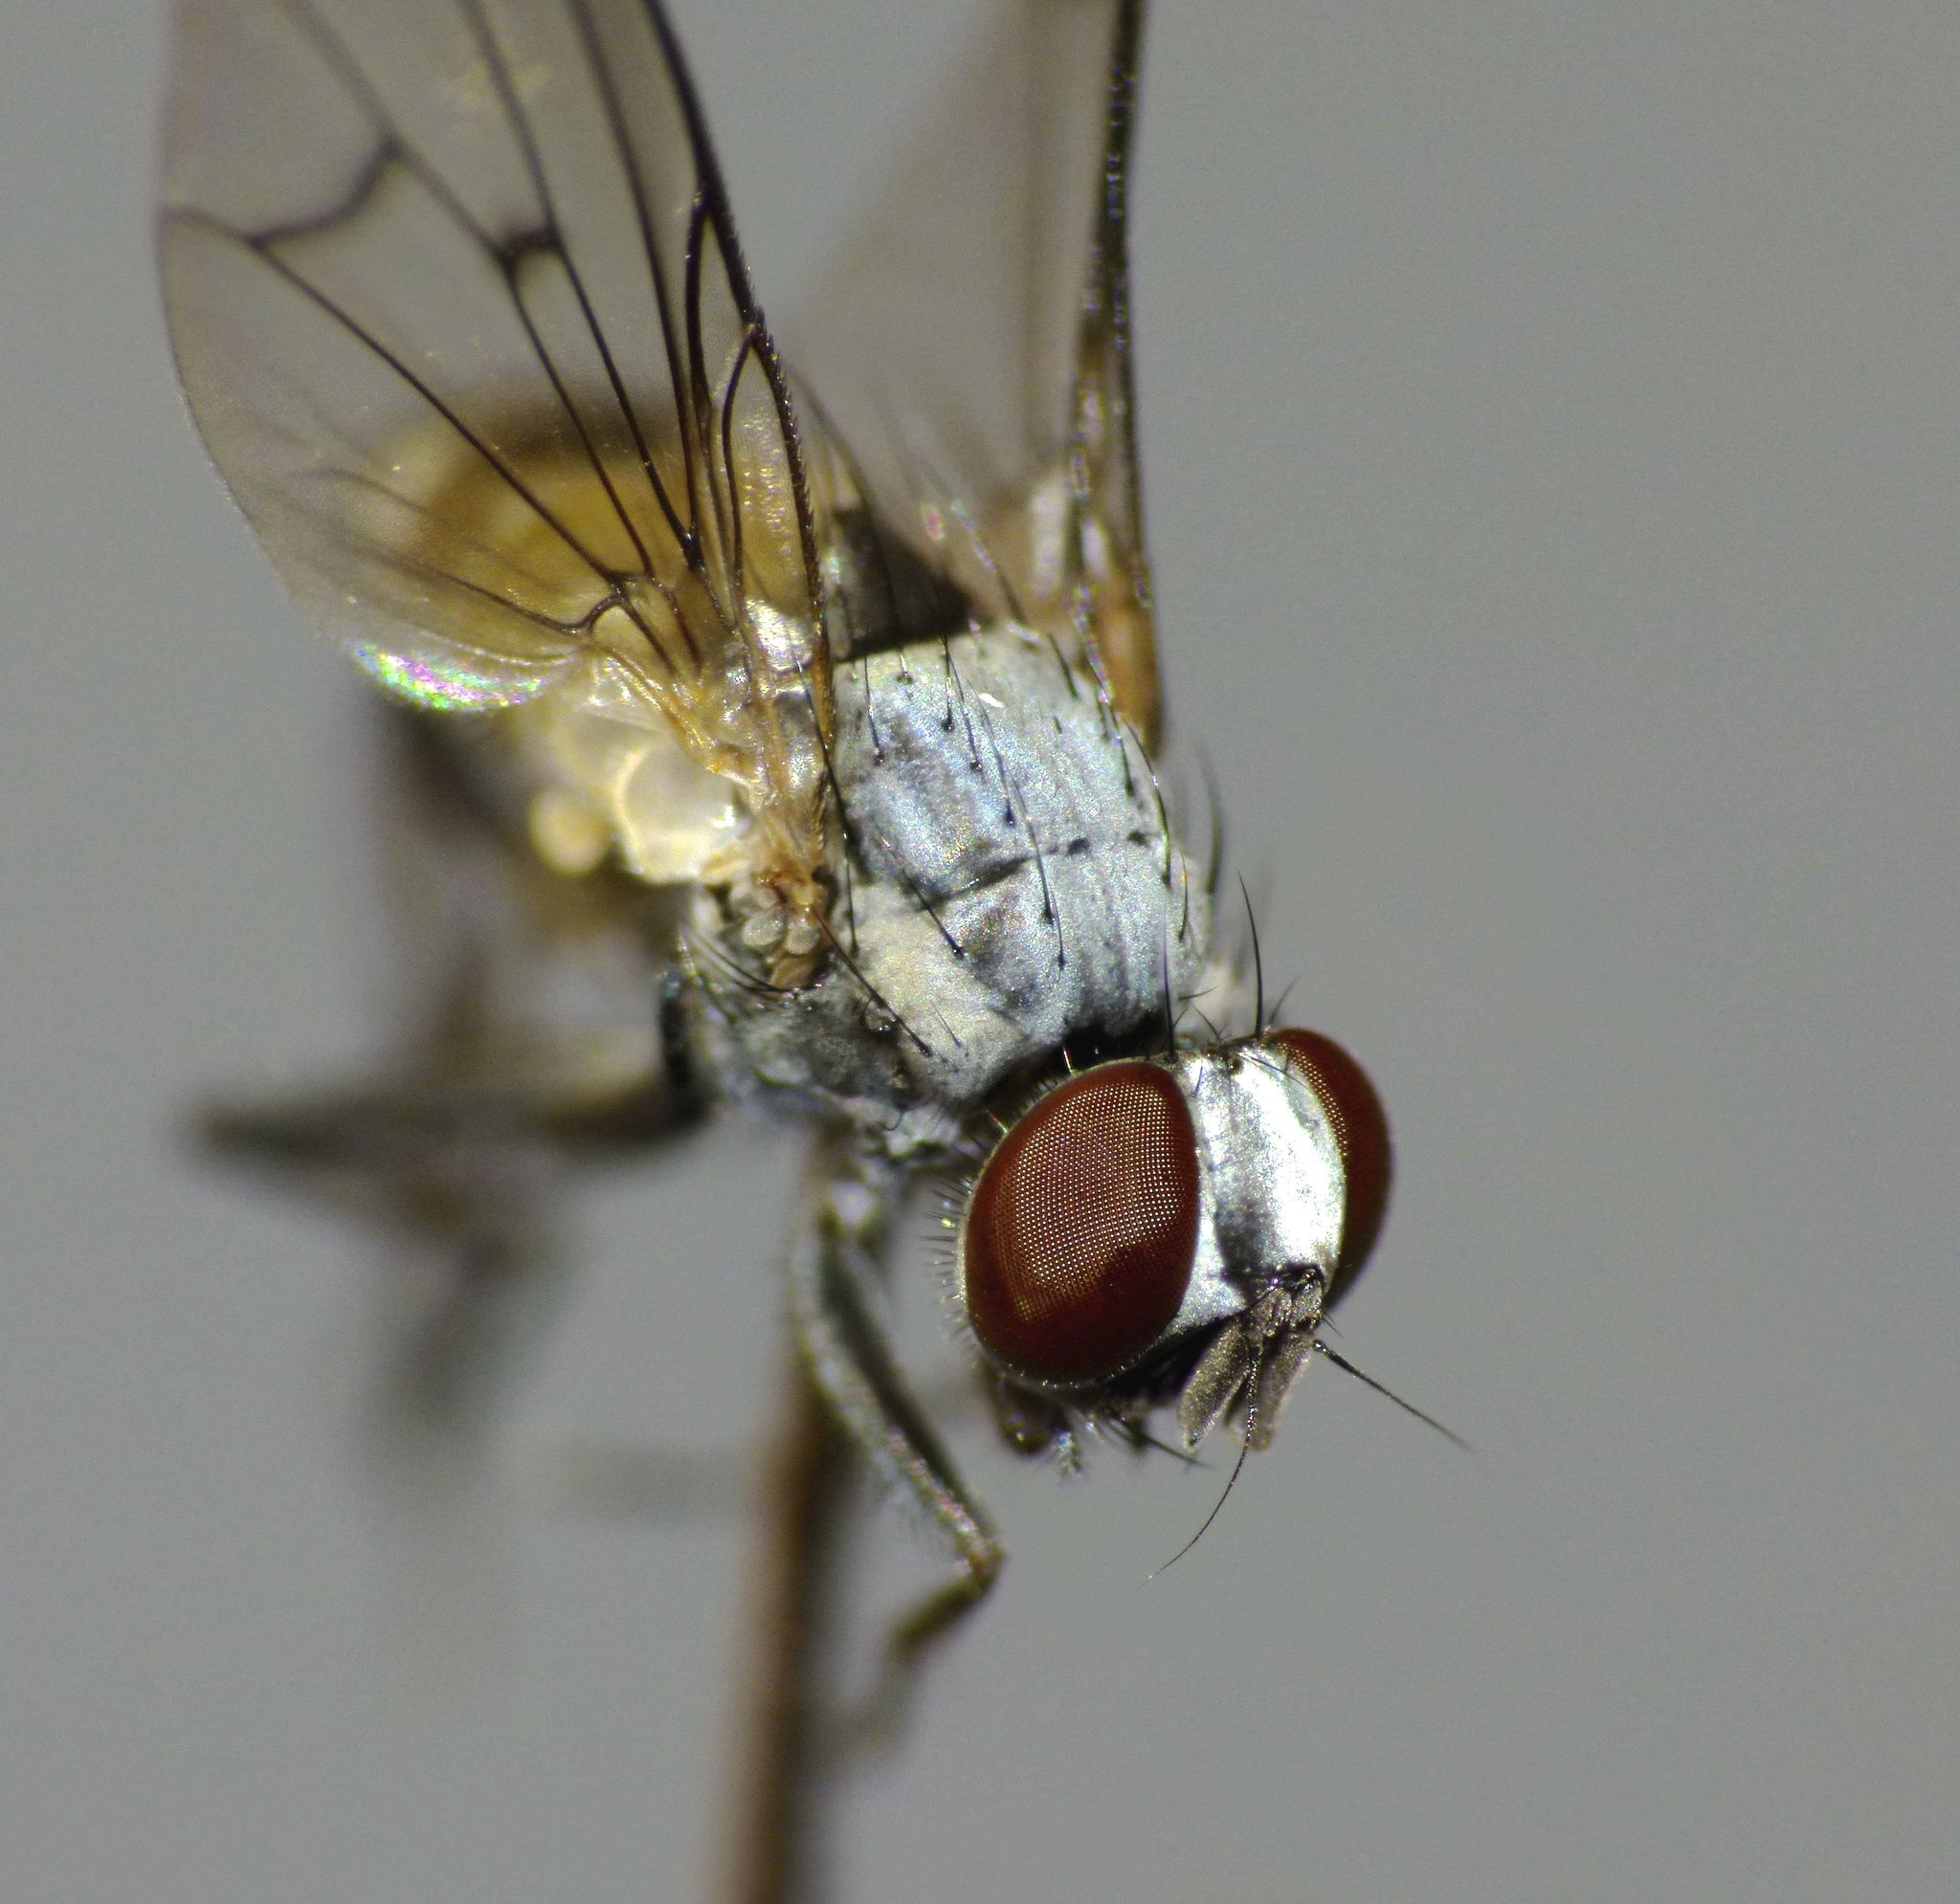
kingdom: Animalia
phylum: Arthropoda
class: Insecta
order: Diptera
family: Muscidae
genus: Spilogona
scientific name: Spilogona flaviventris
